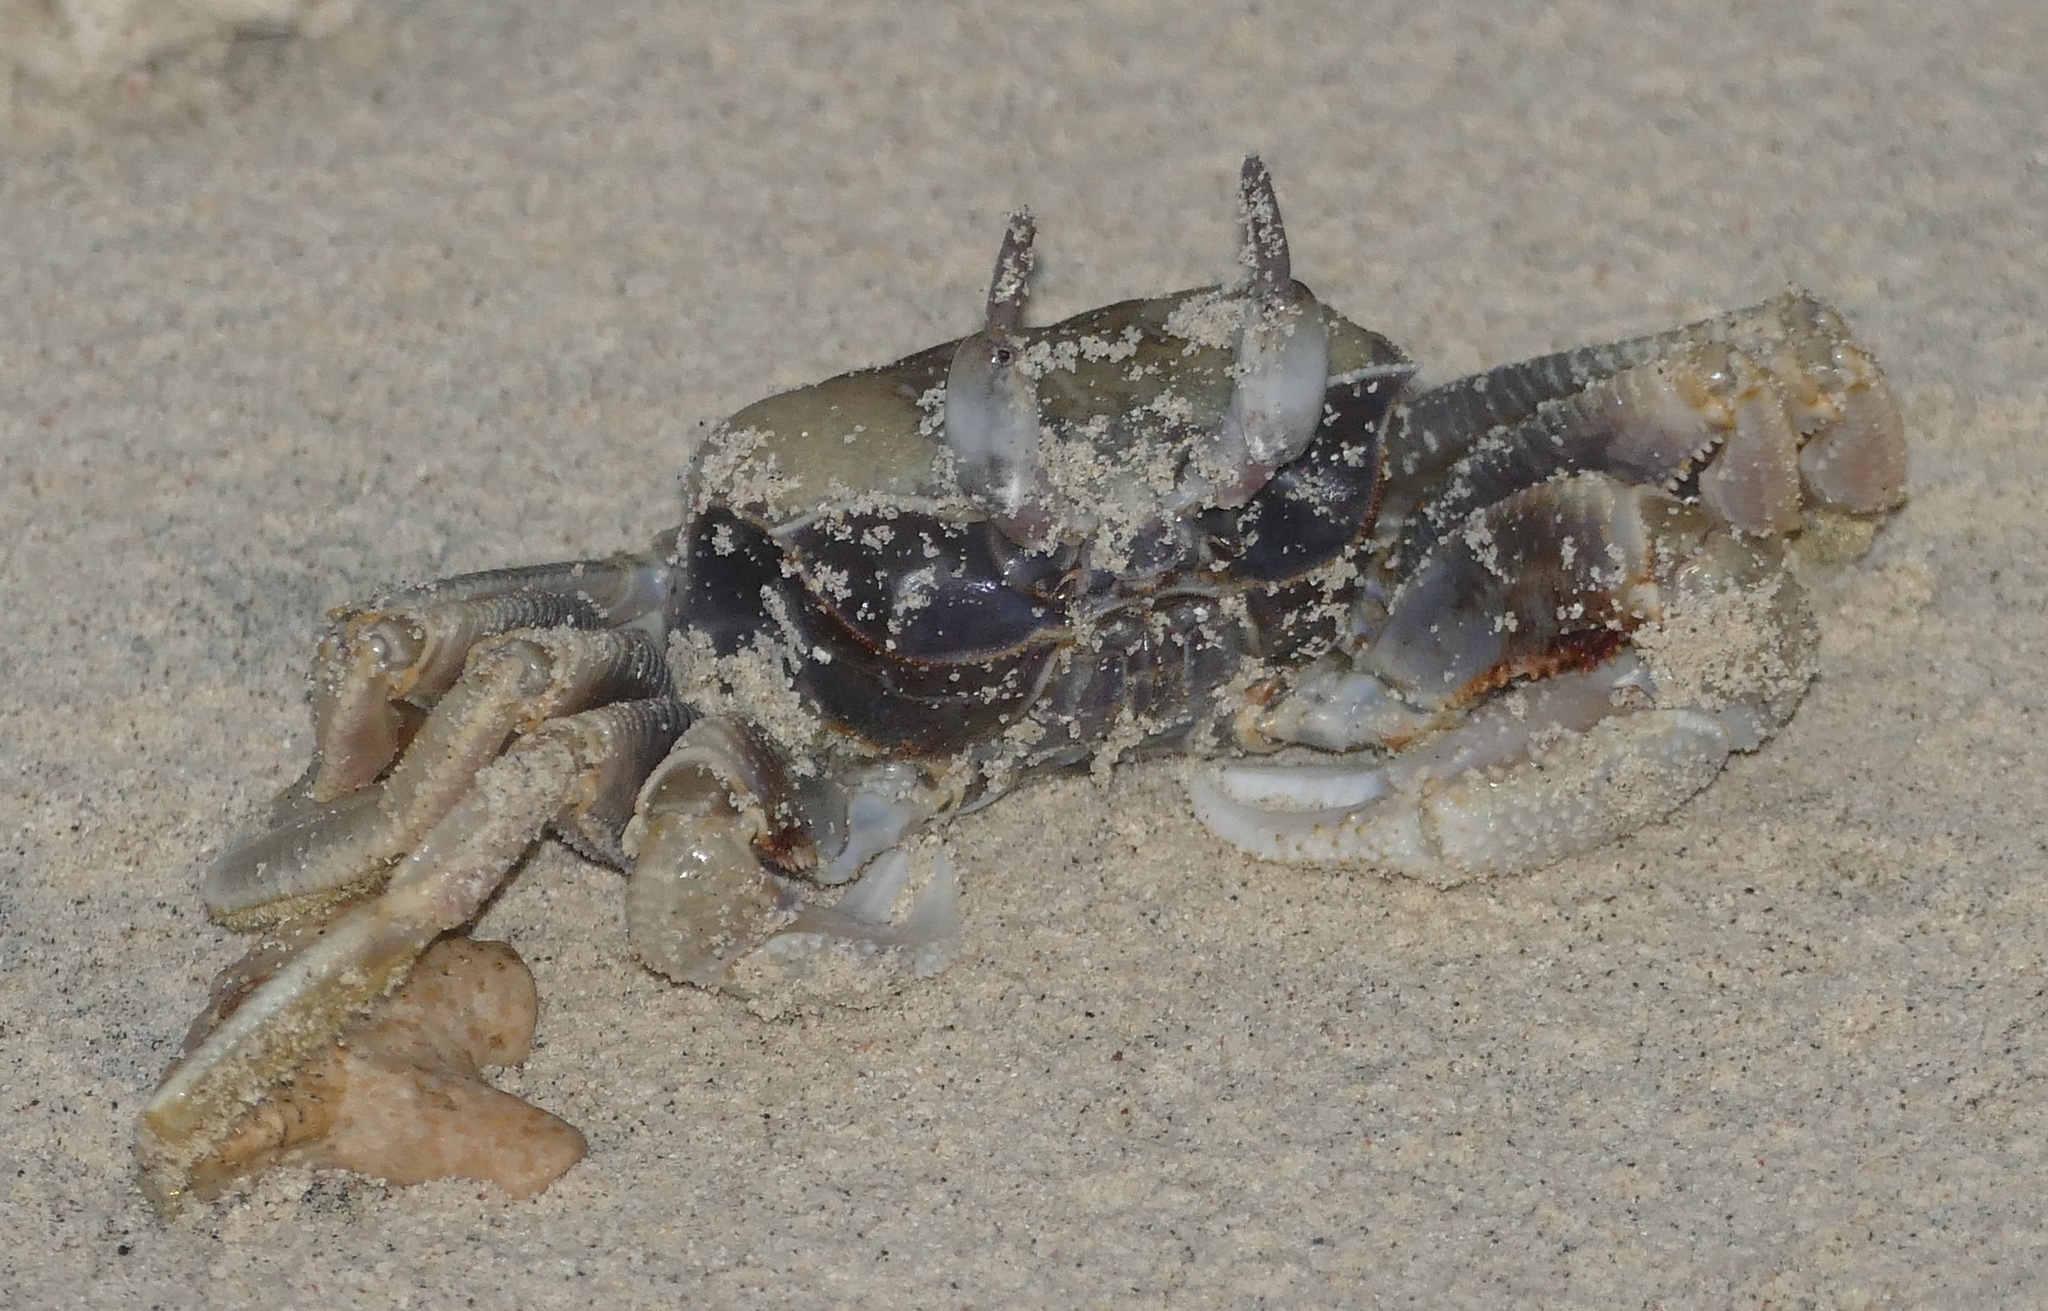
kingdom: Animalia
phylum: Arthropoda
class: Malacostraca
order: Decapoda
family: Ocypodidae
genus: Ocypode
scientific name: Ocypode ceratophthalmus
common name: Indo-pacific ghost crab
